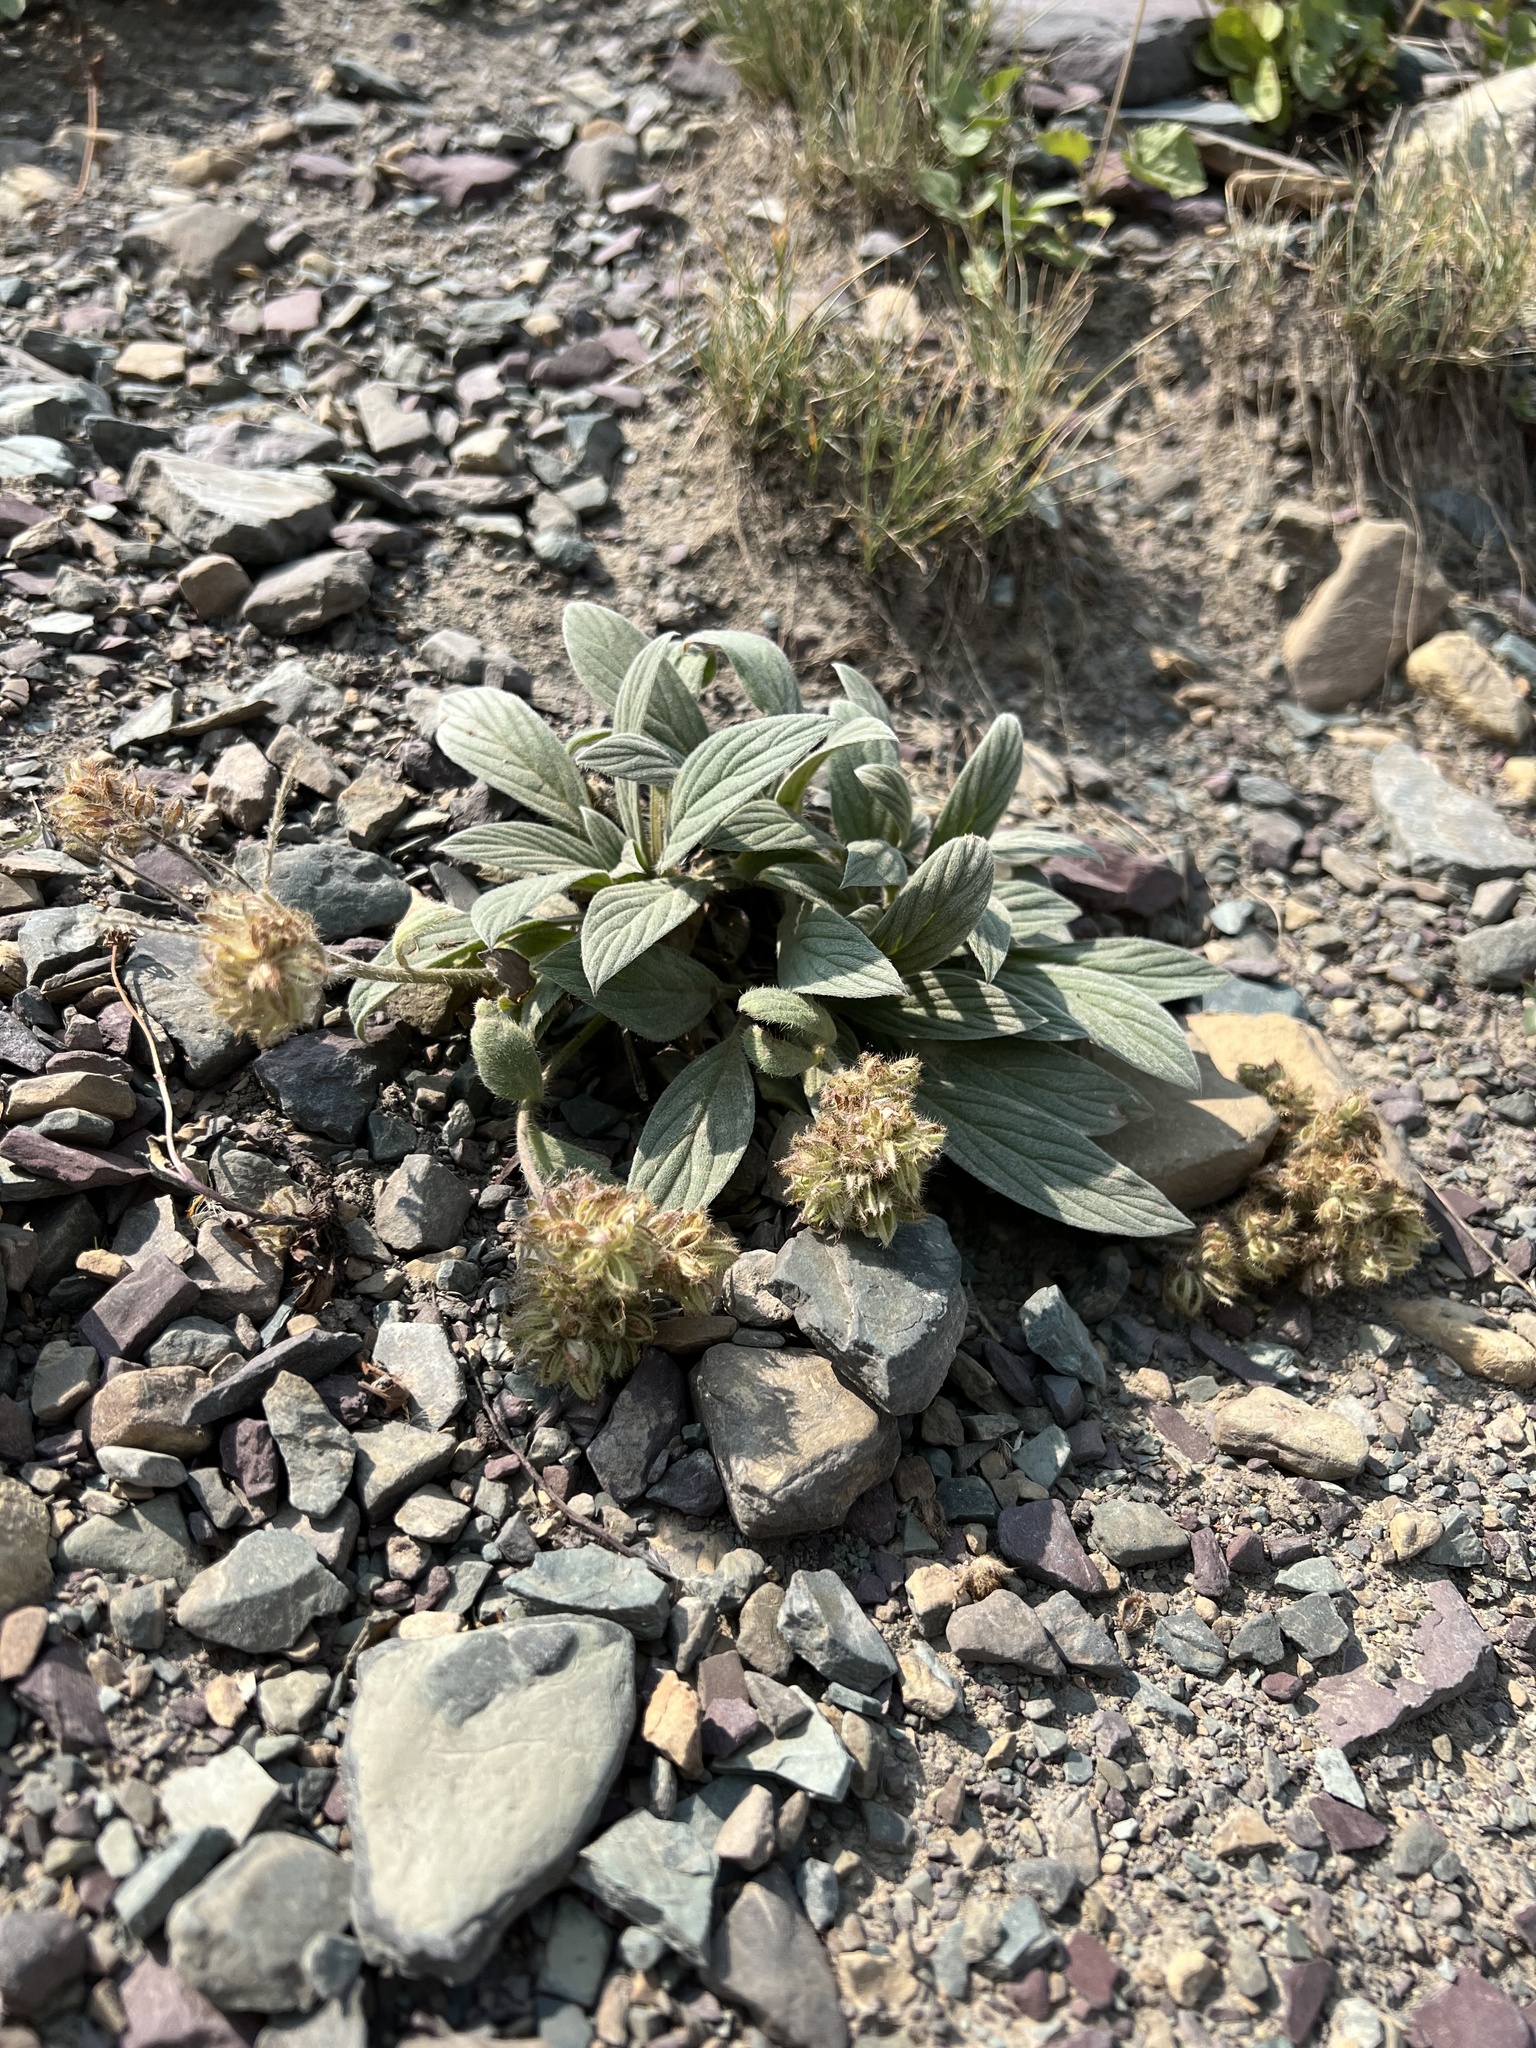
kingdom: Plantae
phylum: Tracheophyta
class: Magnoliopsida
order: Boraginales
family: Hydrophyllaceae
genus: Phacelia
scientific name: Phacelia hastata
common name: Silver-leaved phacelia
